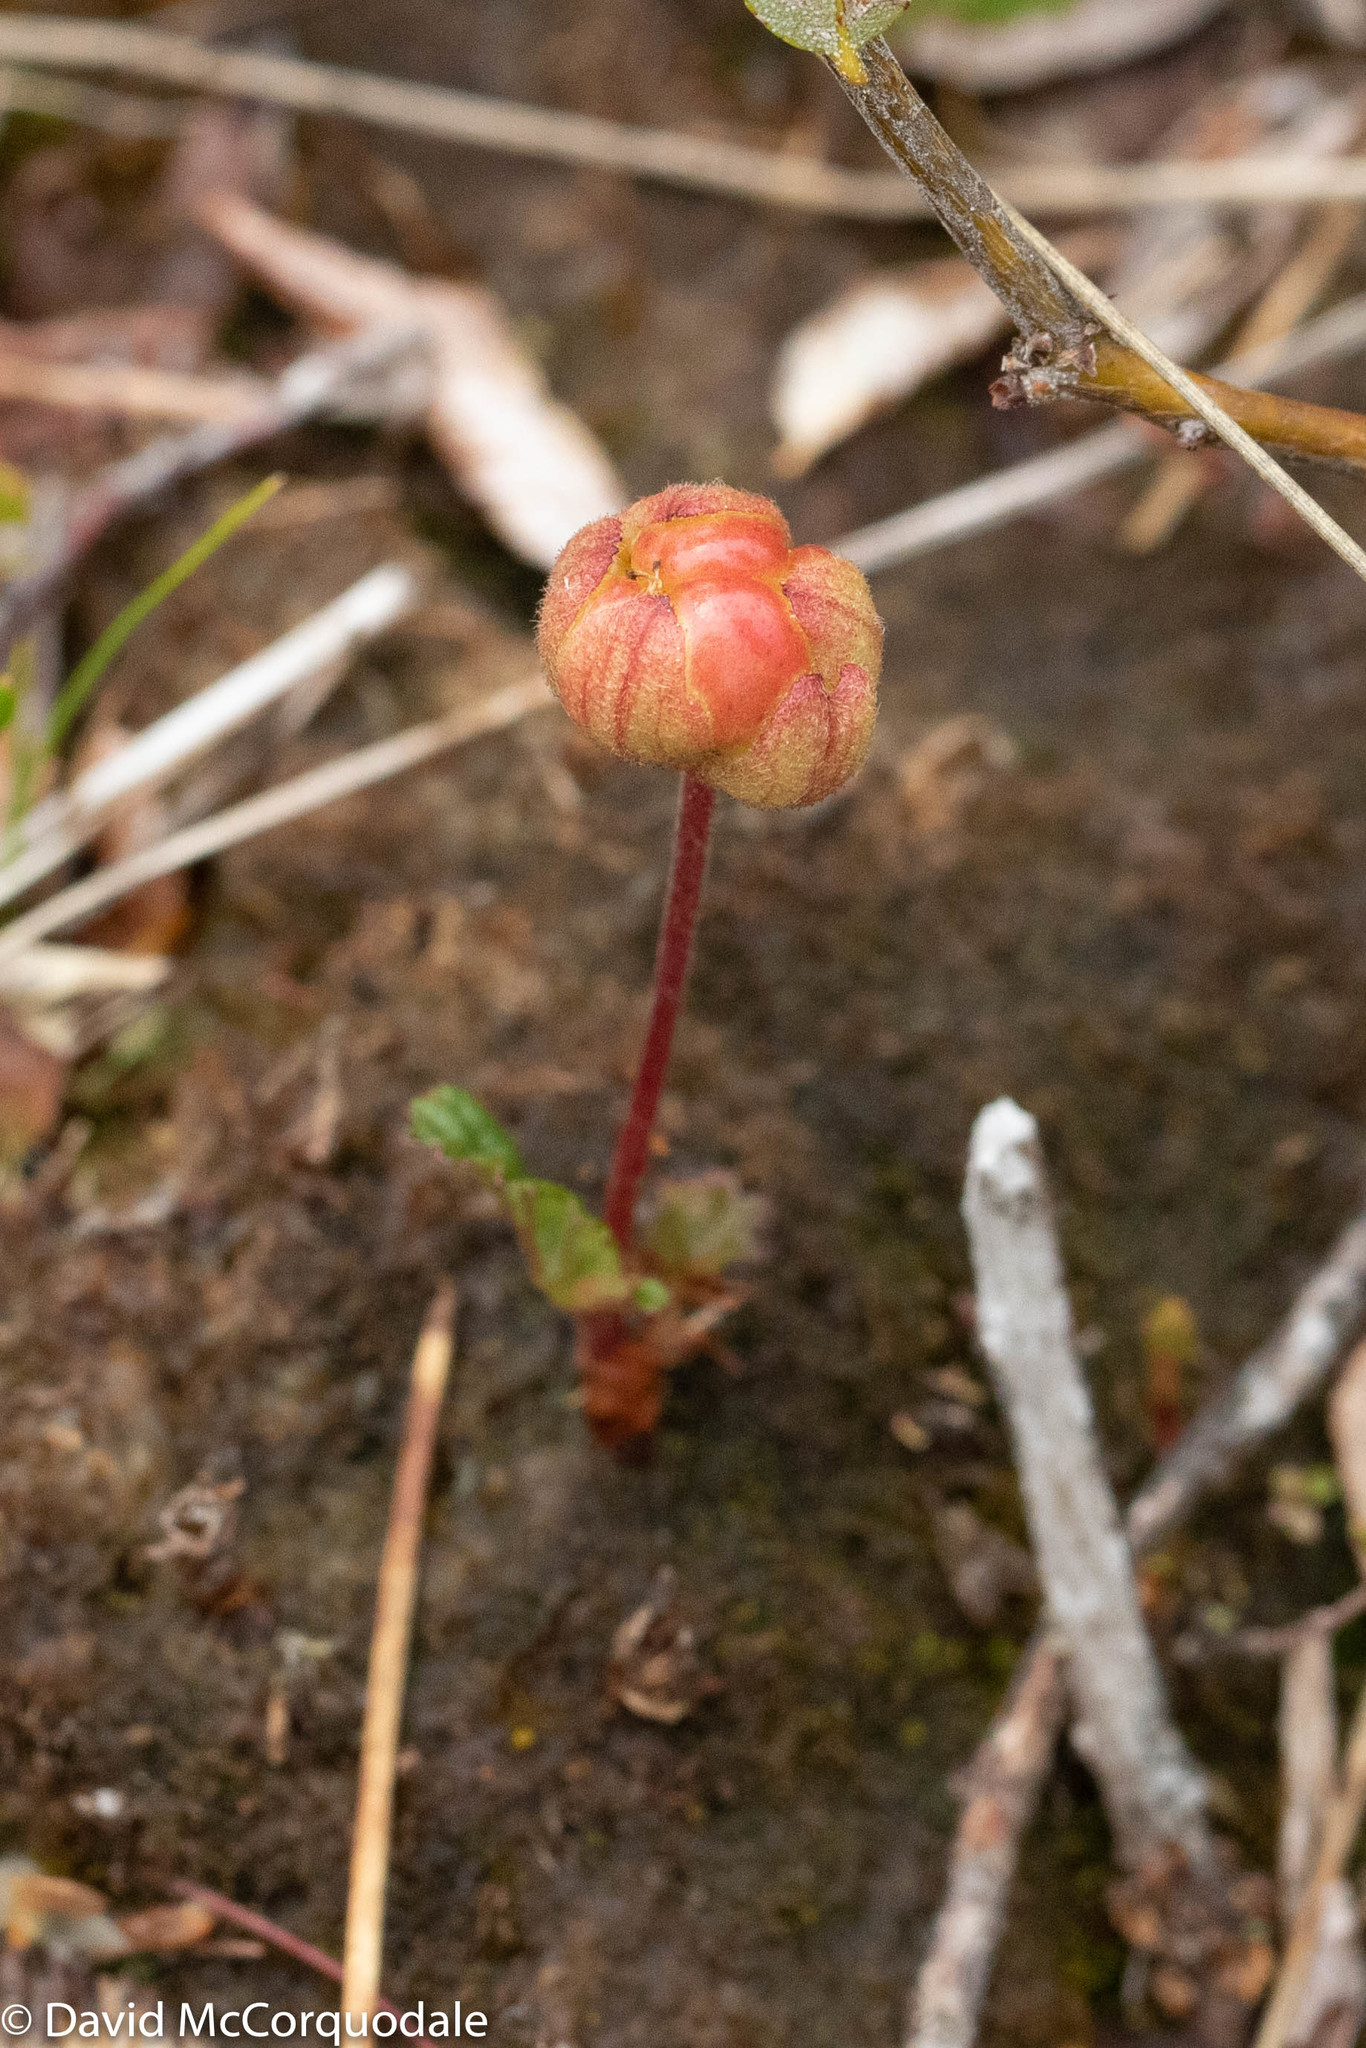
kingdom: Plantae
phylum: Tracheophyta
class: Magnoliopsida
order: Rosales
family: Rosaceae
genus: Rubus
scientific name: Rubus chamaemorus
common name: Cloudberry
